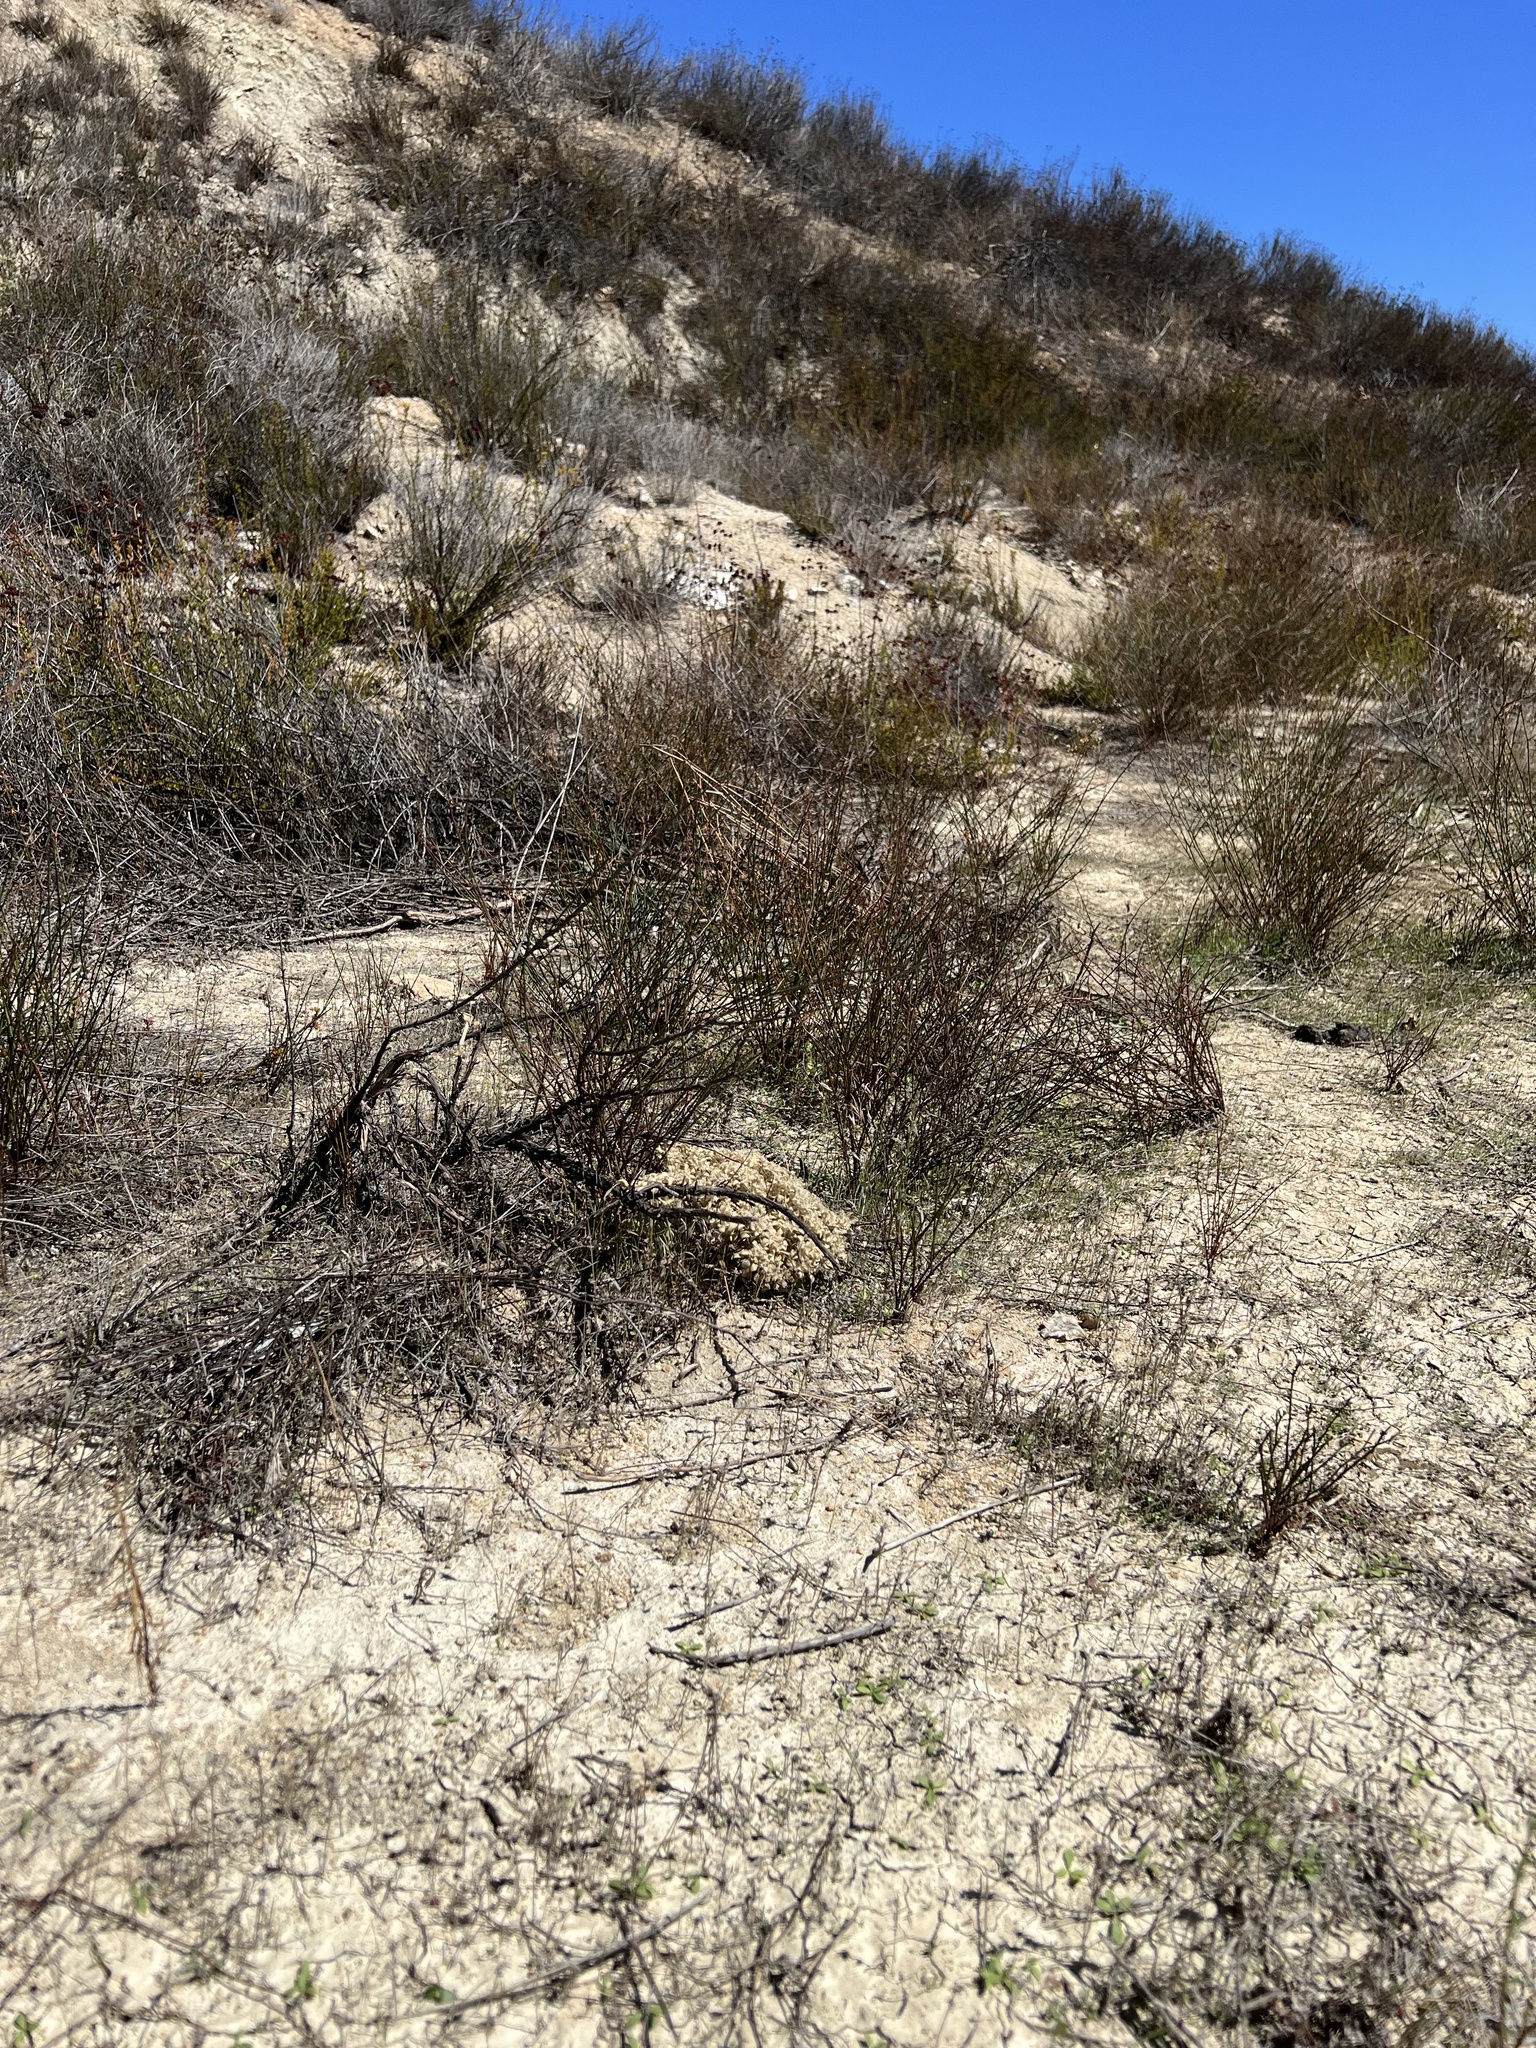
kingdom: Plantae
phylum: Tracheophyta
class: Magnoliopsida
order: Malpighiales
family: Euphorbiaceae
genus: Croton
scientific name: Croton setiger
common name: Dove weed
